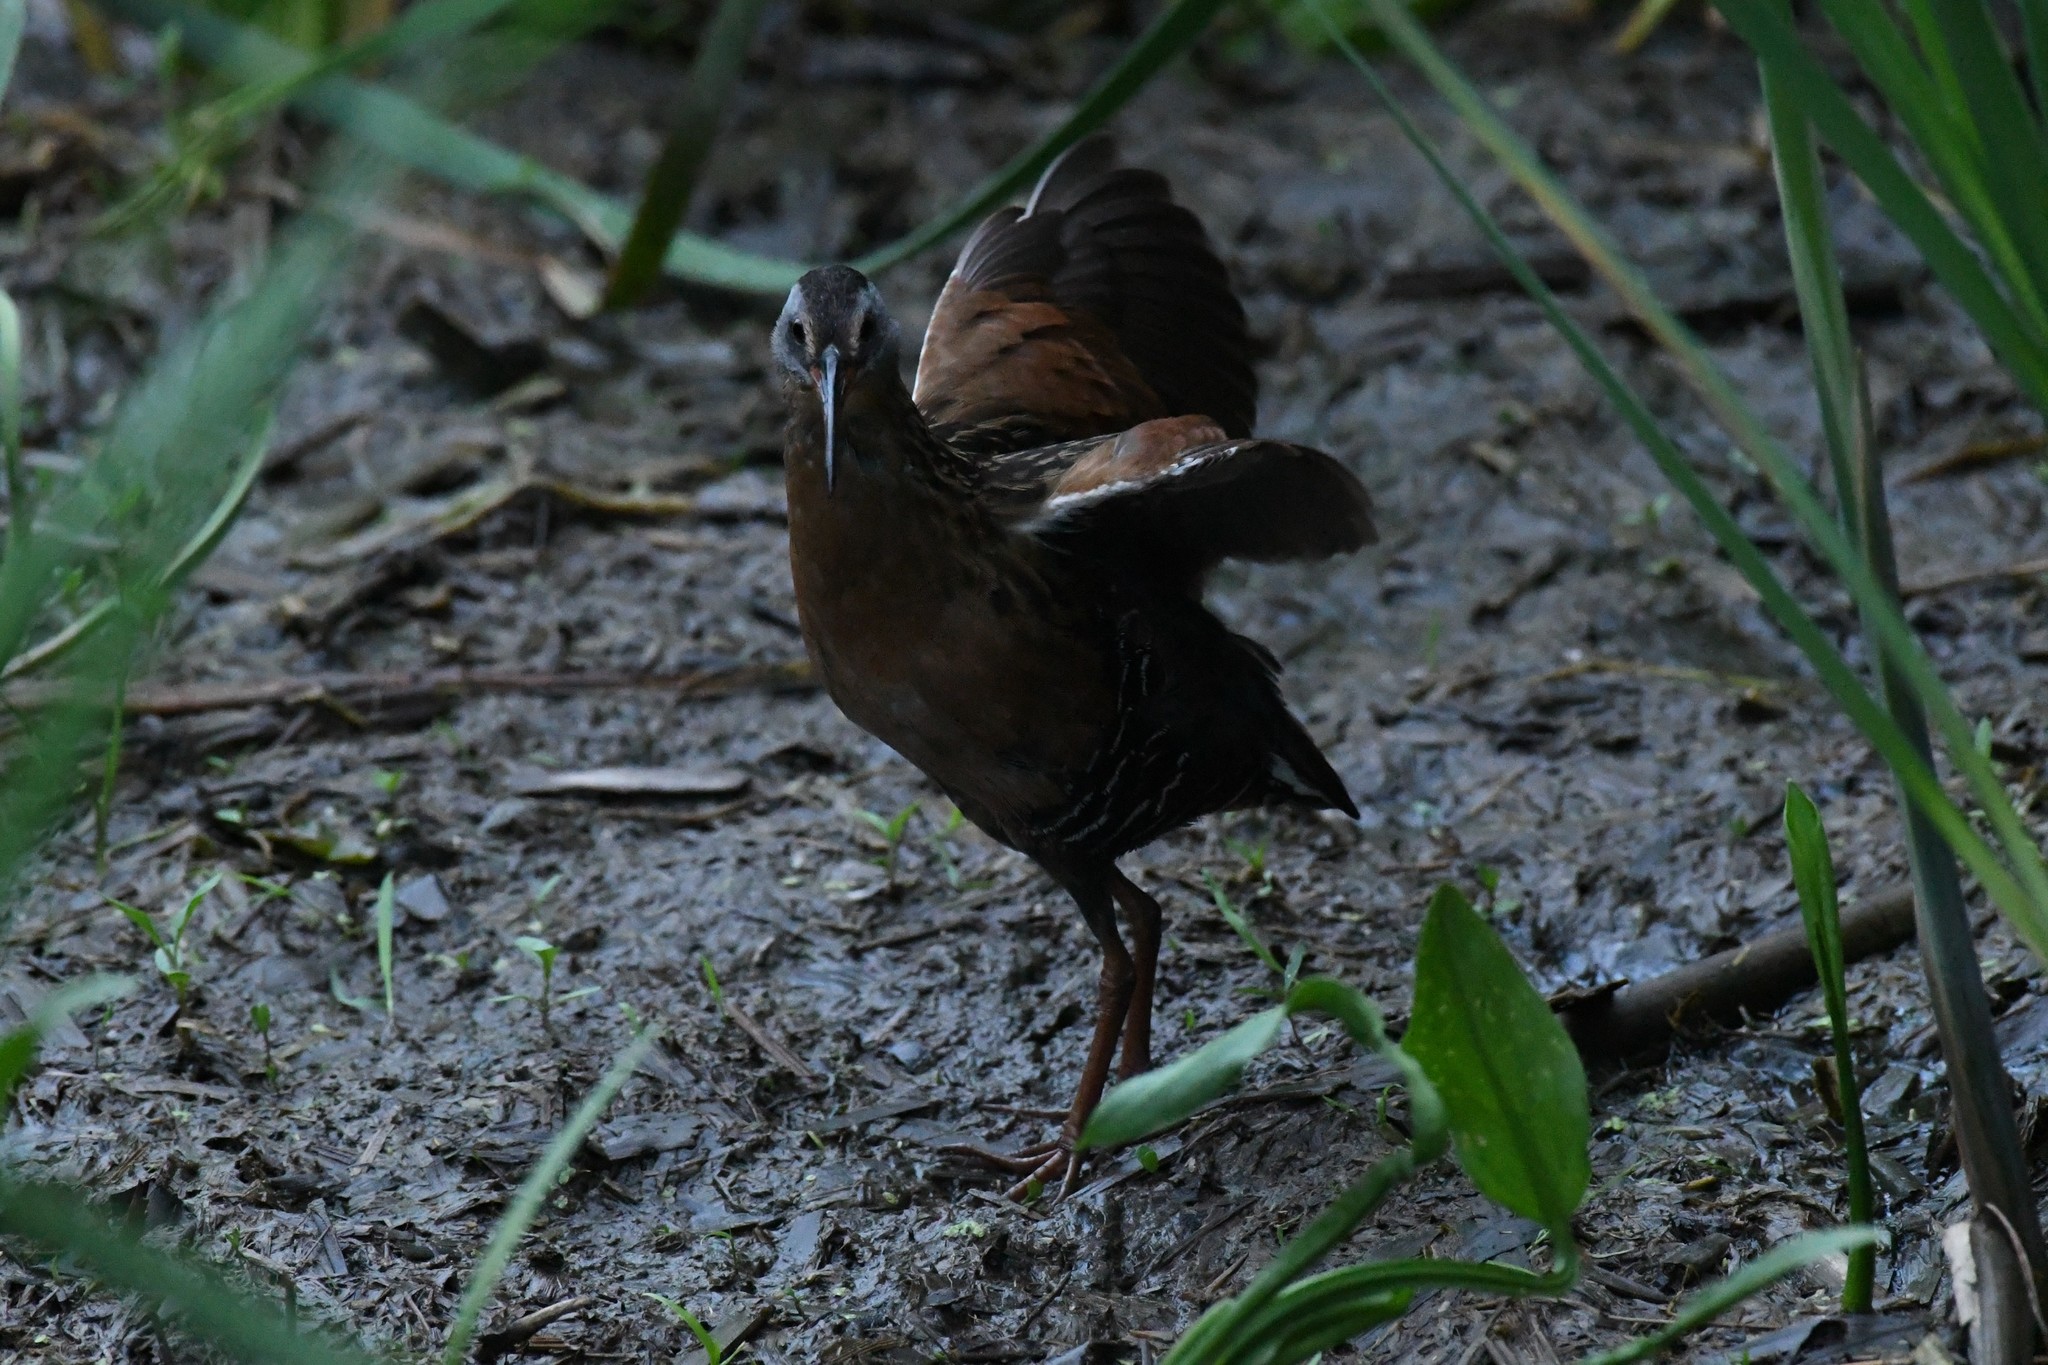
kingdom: Animalia
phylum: Chordata
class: Aves
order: Gruiformes
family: Rallidae
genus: Rallus
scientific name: Rallus limicola
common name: Virginia rail
